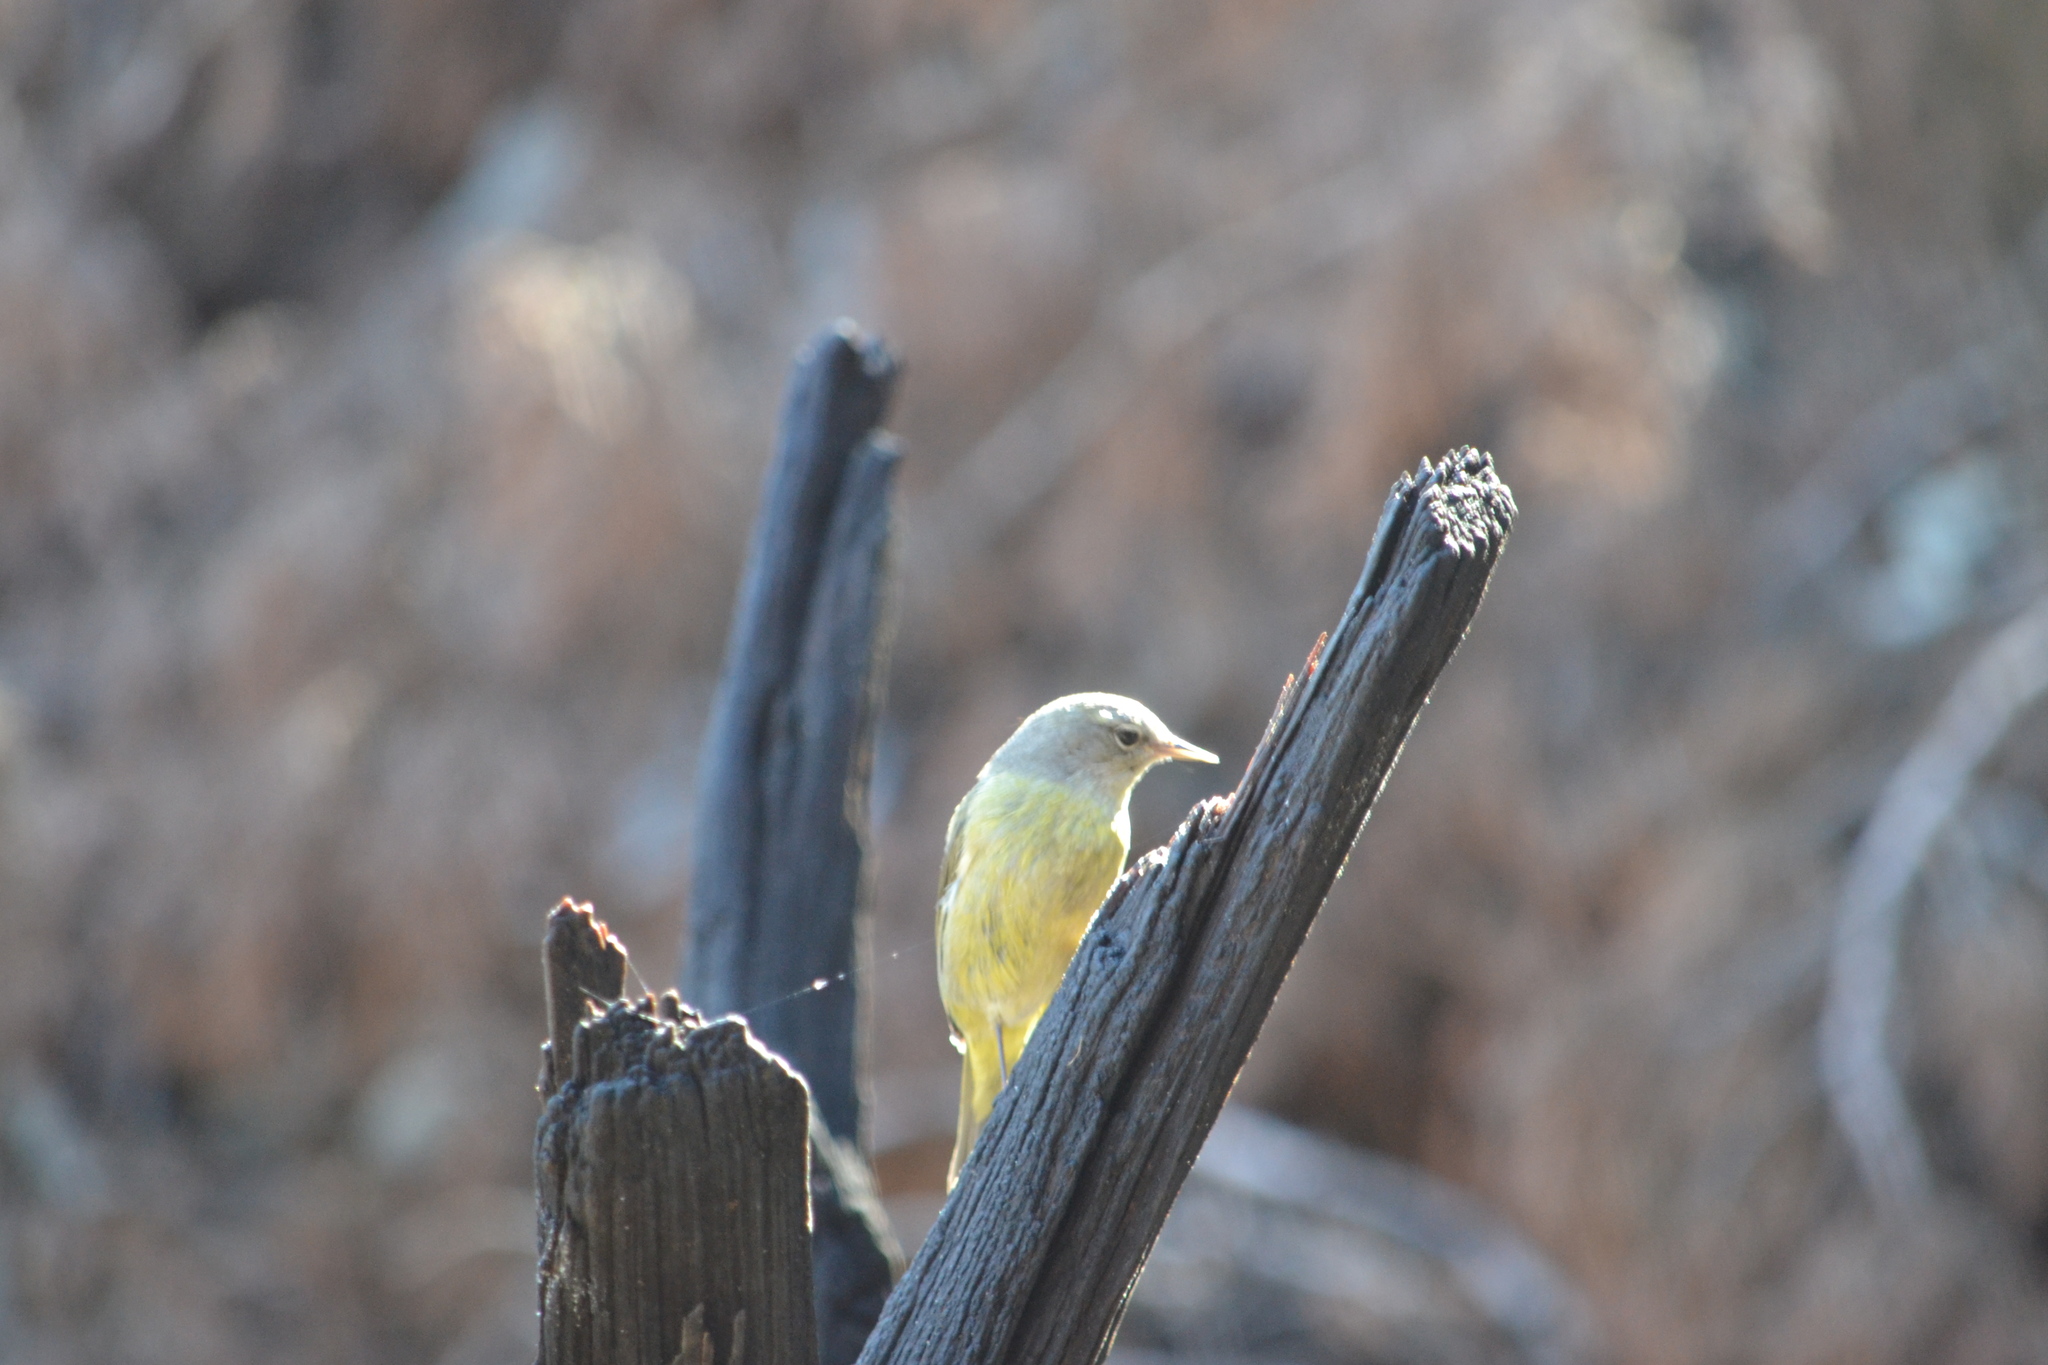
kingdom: Animalia
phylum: Chordata
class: Aves
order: Passeriformes
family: Parulidae
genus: Leiothlypis
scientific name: Leiothlypis celata
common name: Orange-crowned warbler
